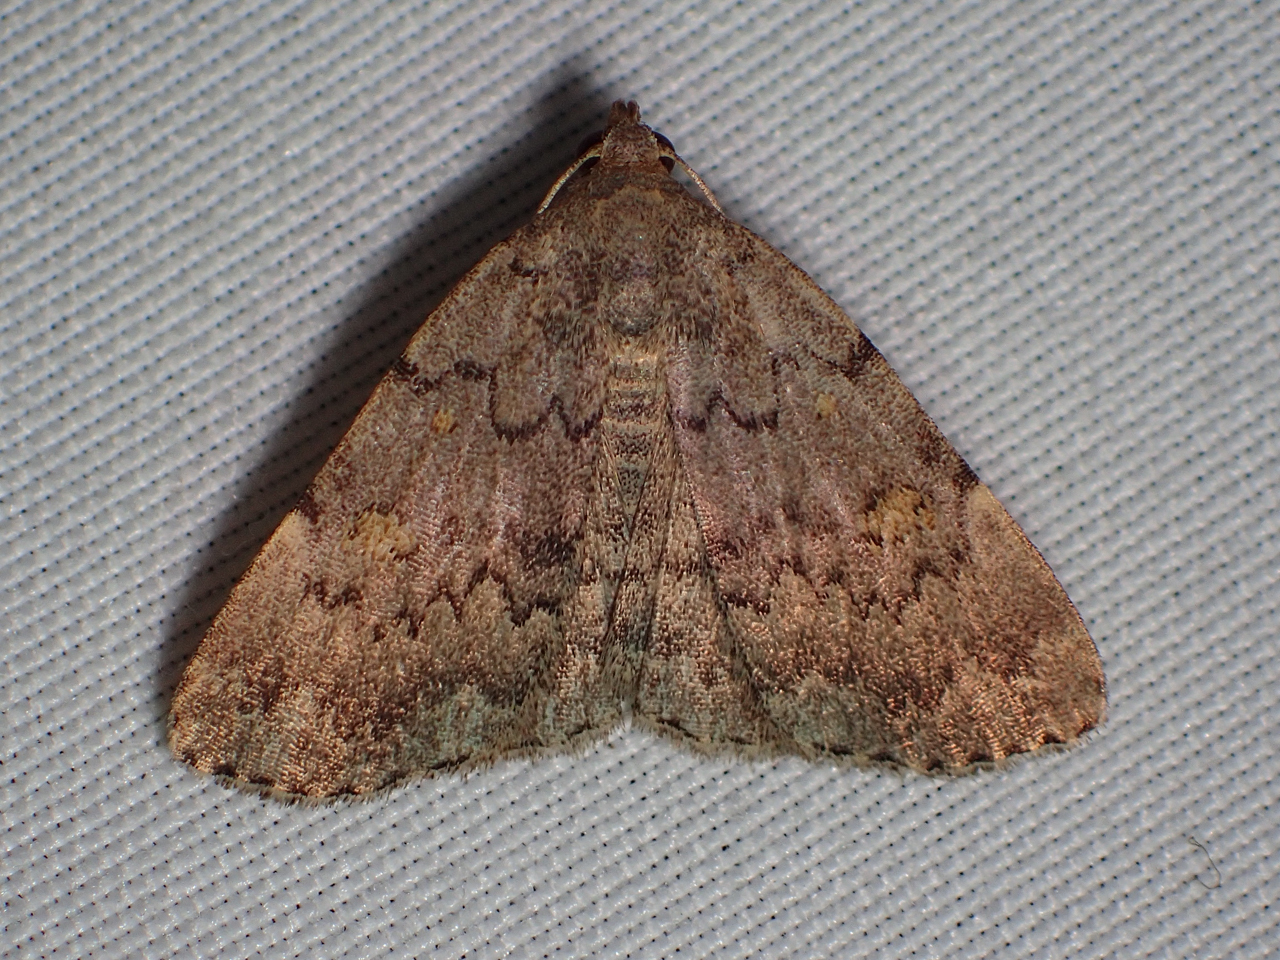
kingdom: Animalia
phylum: Arthropoda
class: Insecta
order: Lepidoptera
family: Erebidae
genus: Idia
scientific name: Idia aemula
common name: Common idia moth
